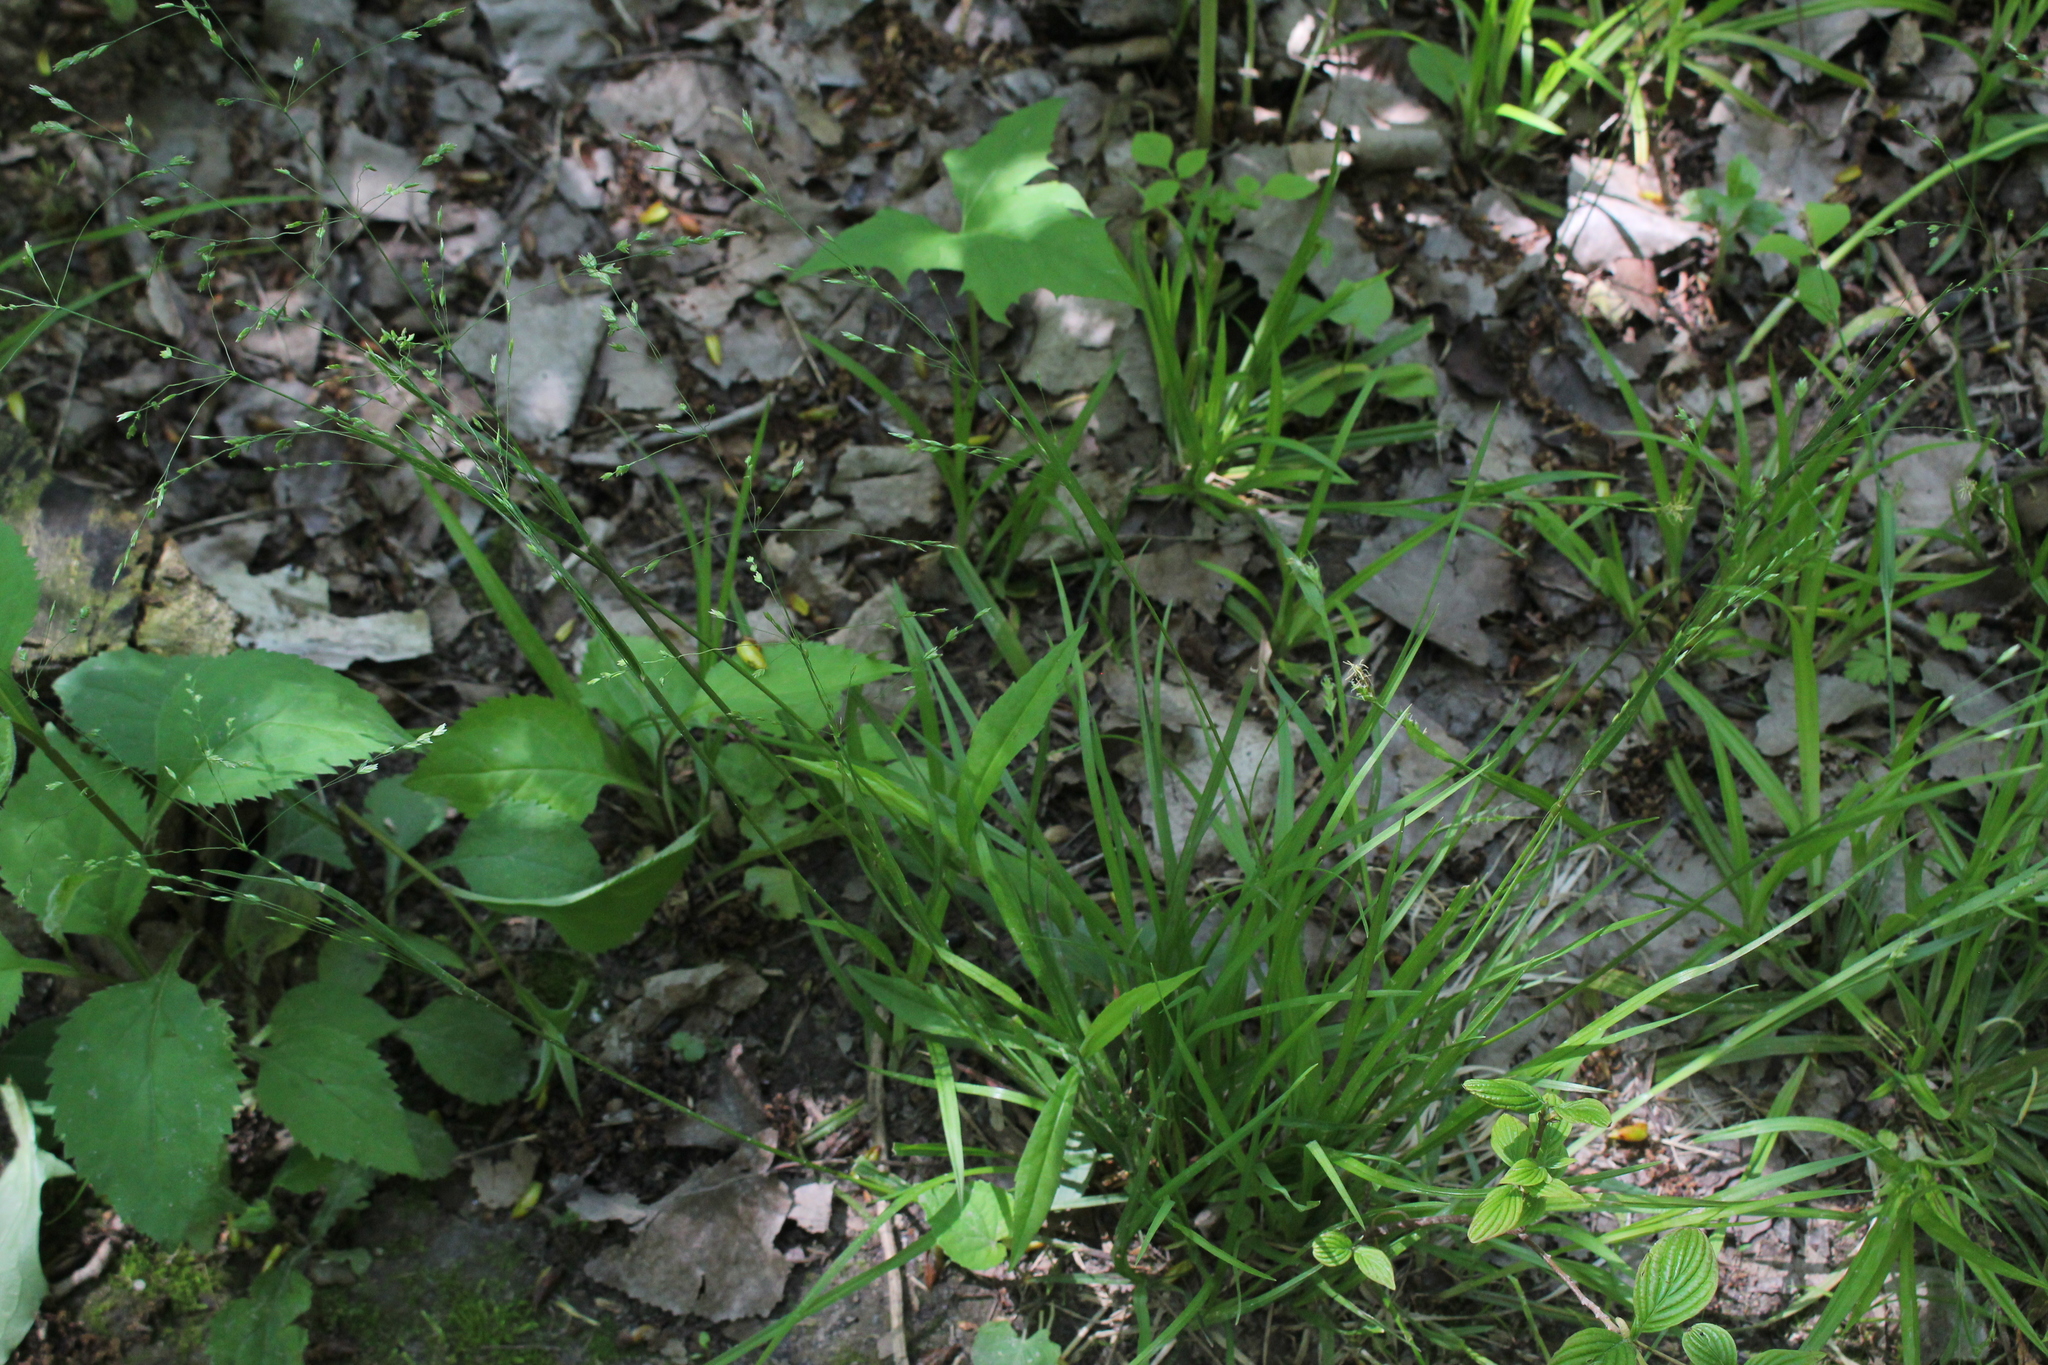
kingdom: Plantae
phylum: Tracheophyta
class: Liliopsida
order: Poales
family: Poaceae
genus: Poa
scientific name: Poa alsodes
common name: Grove bluegrass
